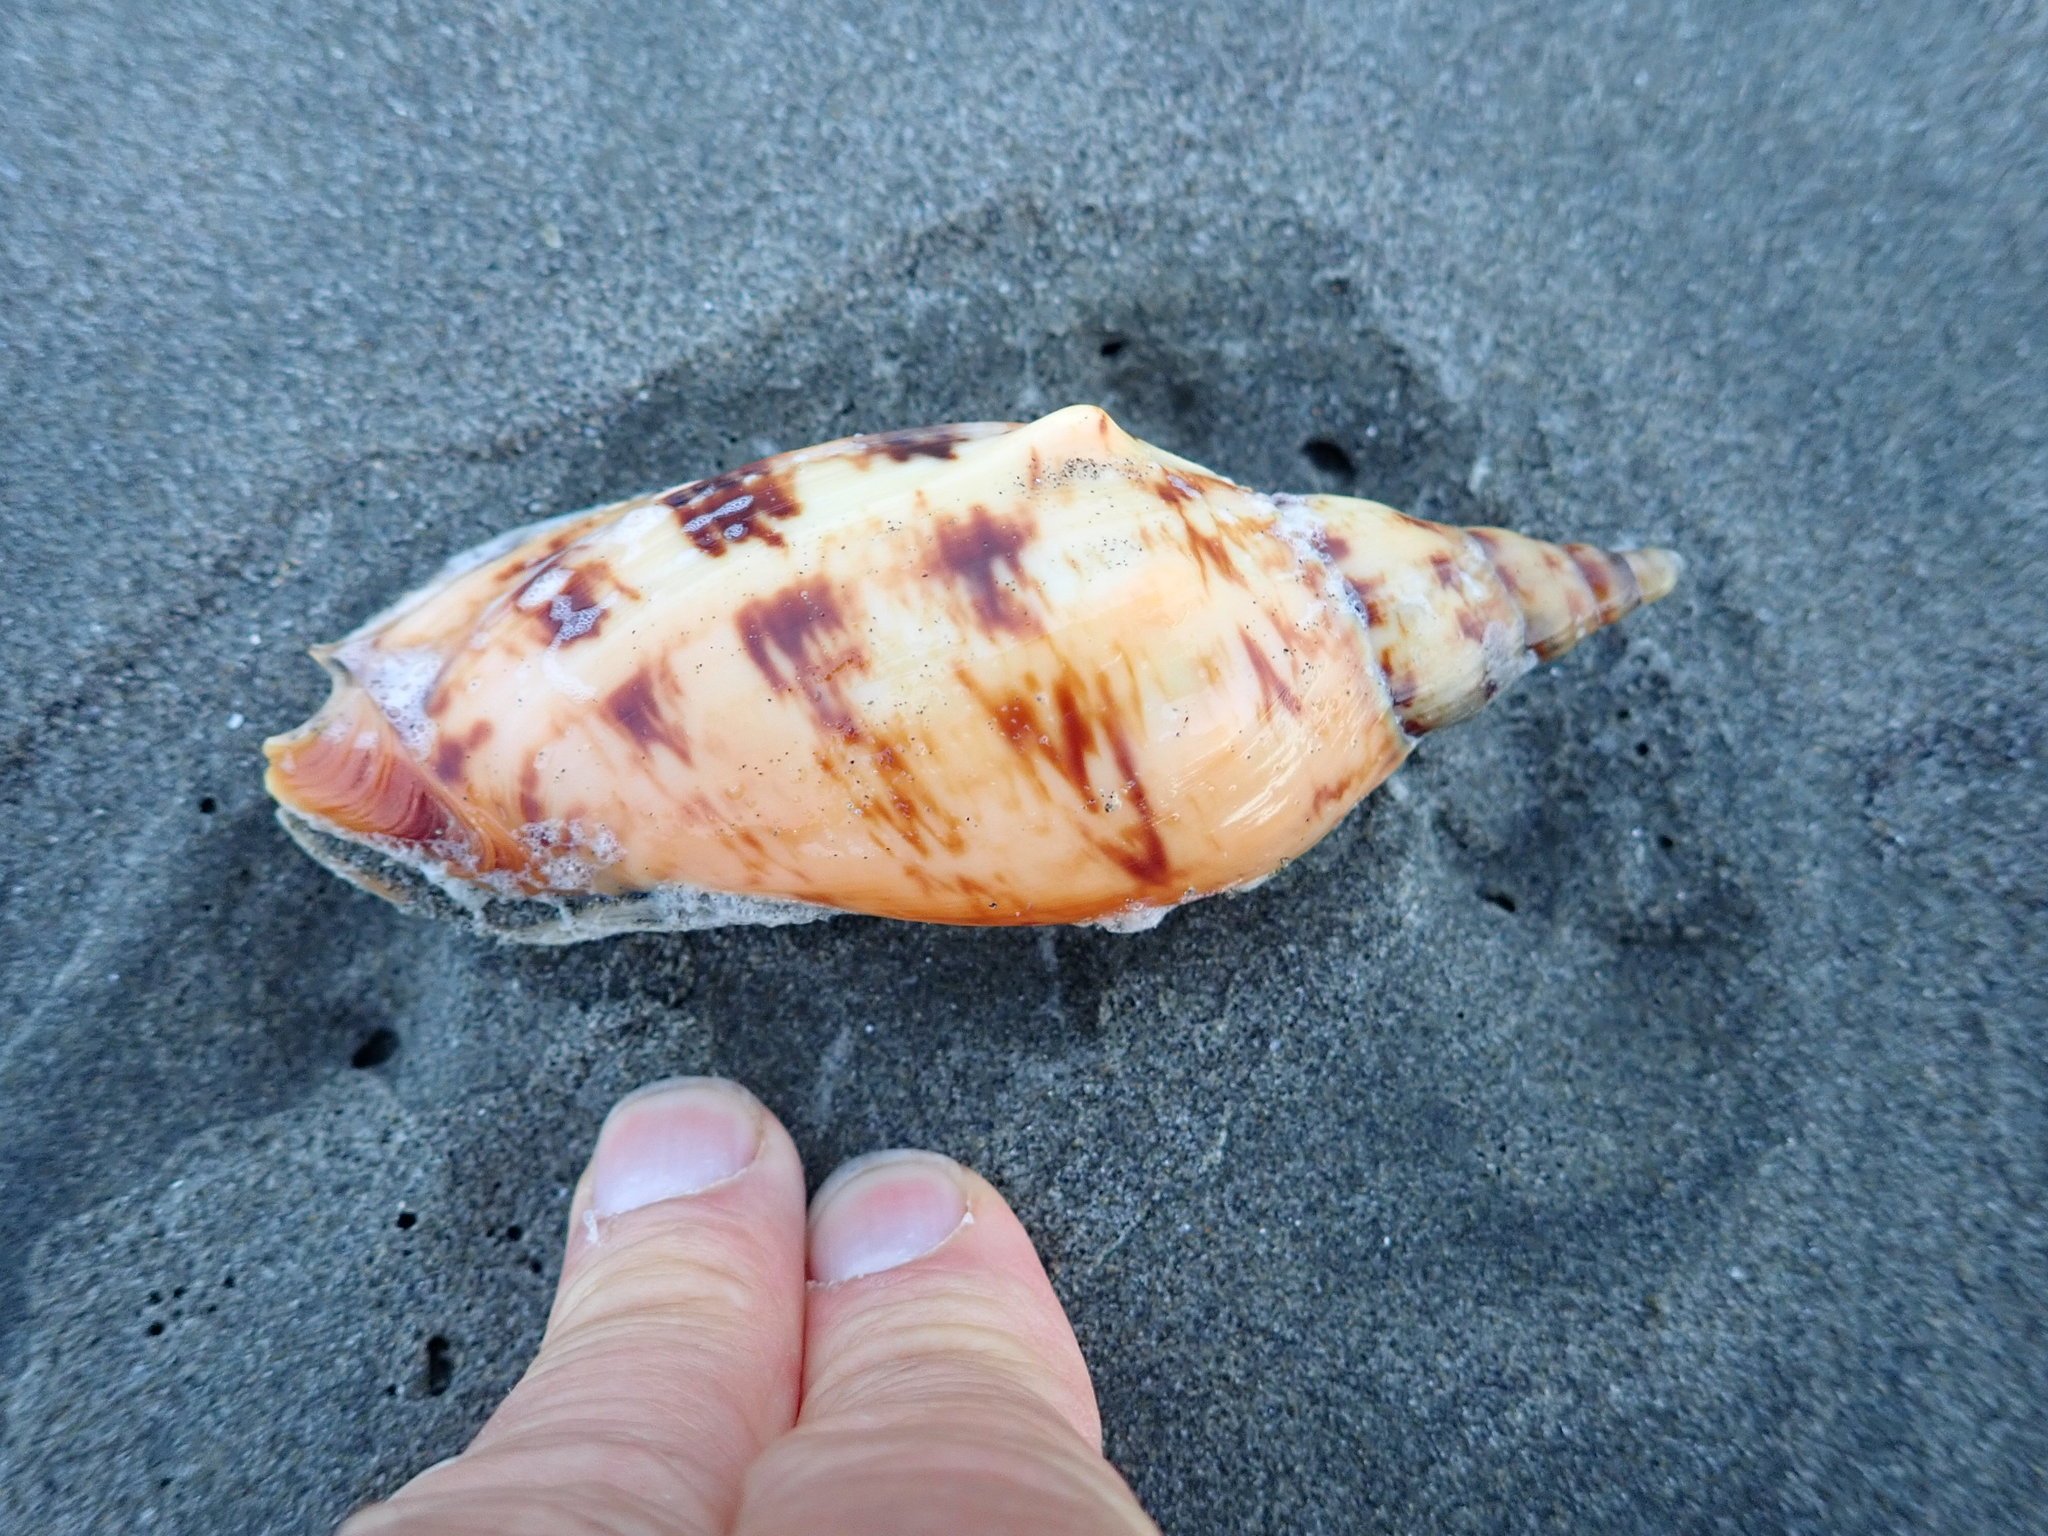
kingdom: Animalia
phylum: Mollusca
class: Gastropoda
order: Neogastropoda
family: Volutidae
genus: Alcithoe
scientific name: Alcithoe arabica
